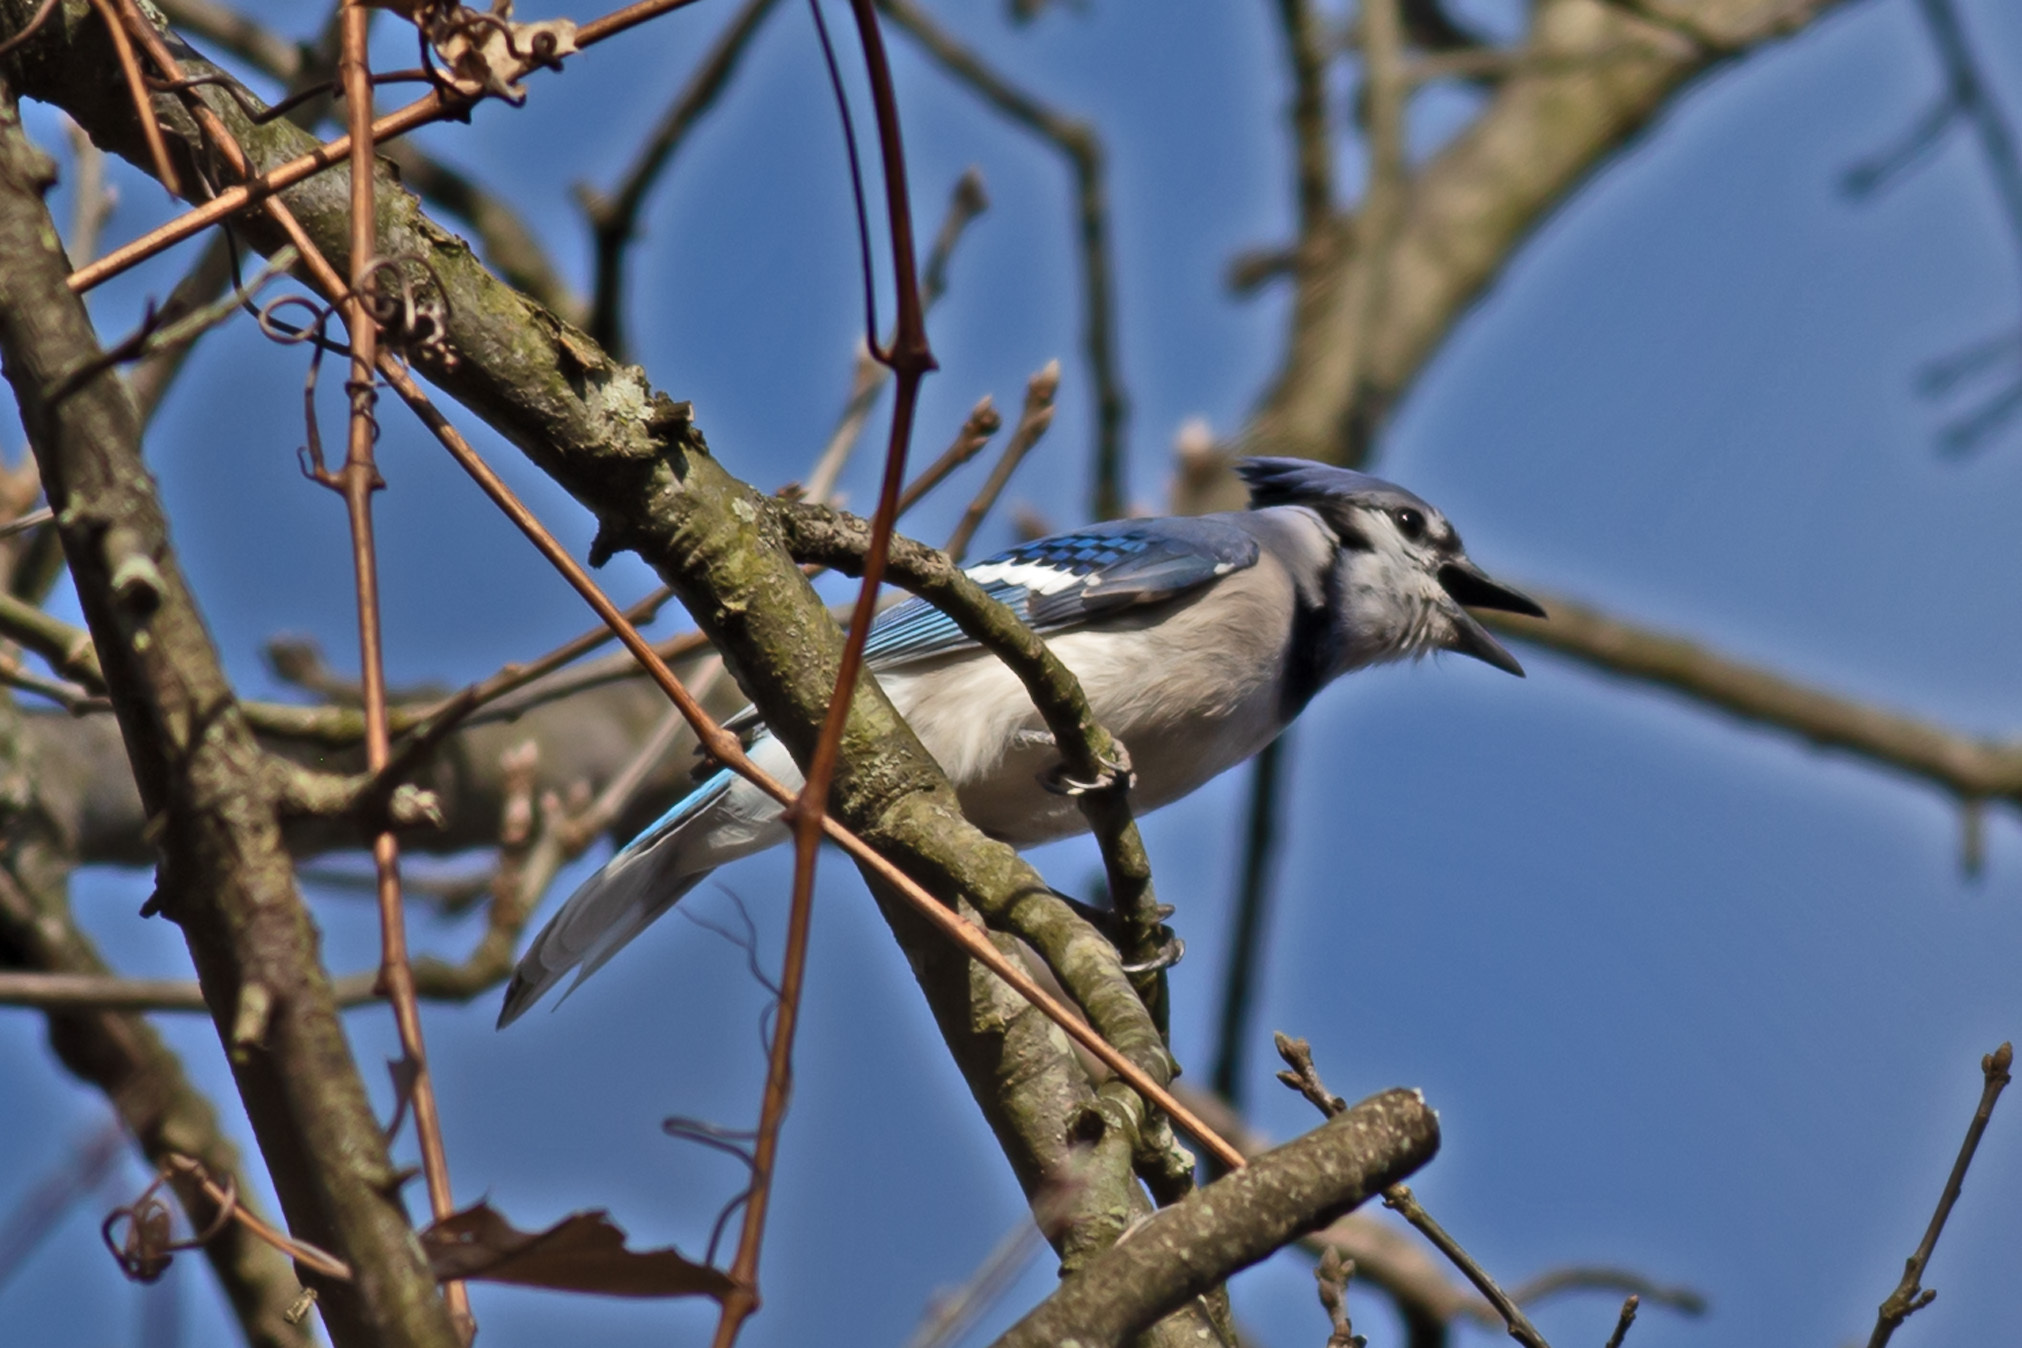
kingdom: Animalia
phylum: Chordata
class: Aves
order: Passeriformes
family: Corvidae
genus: Cyanocitta
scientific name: Cyanocitta cristata
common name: Blue jay
